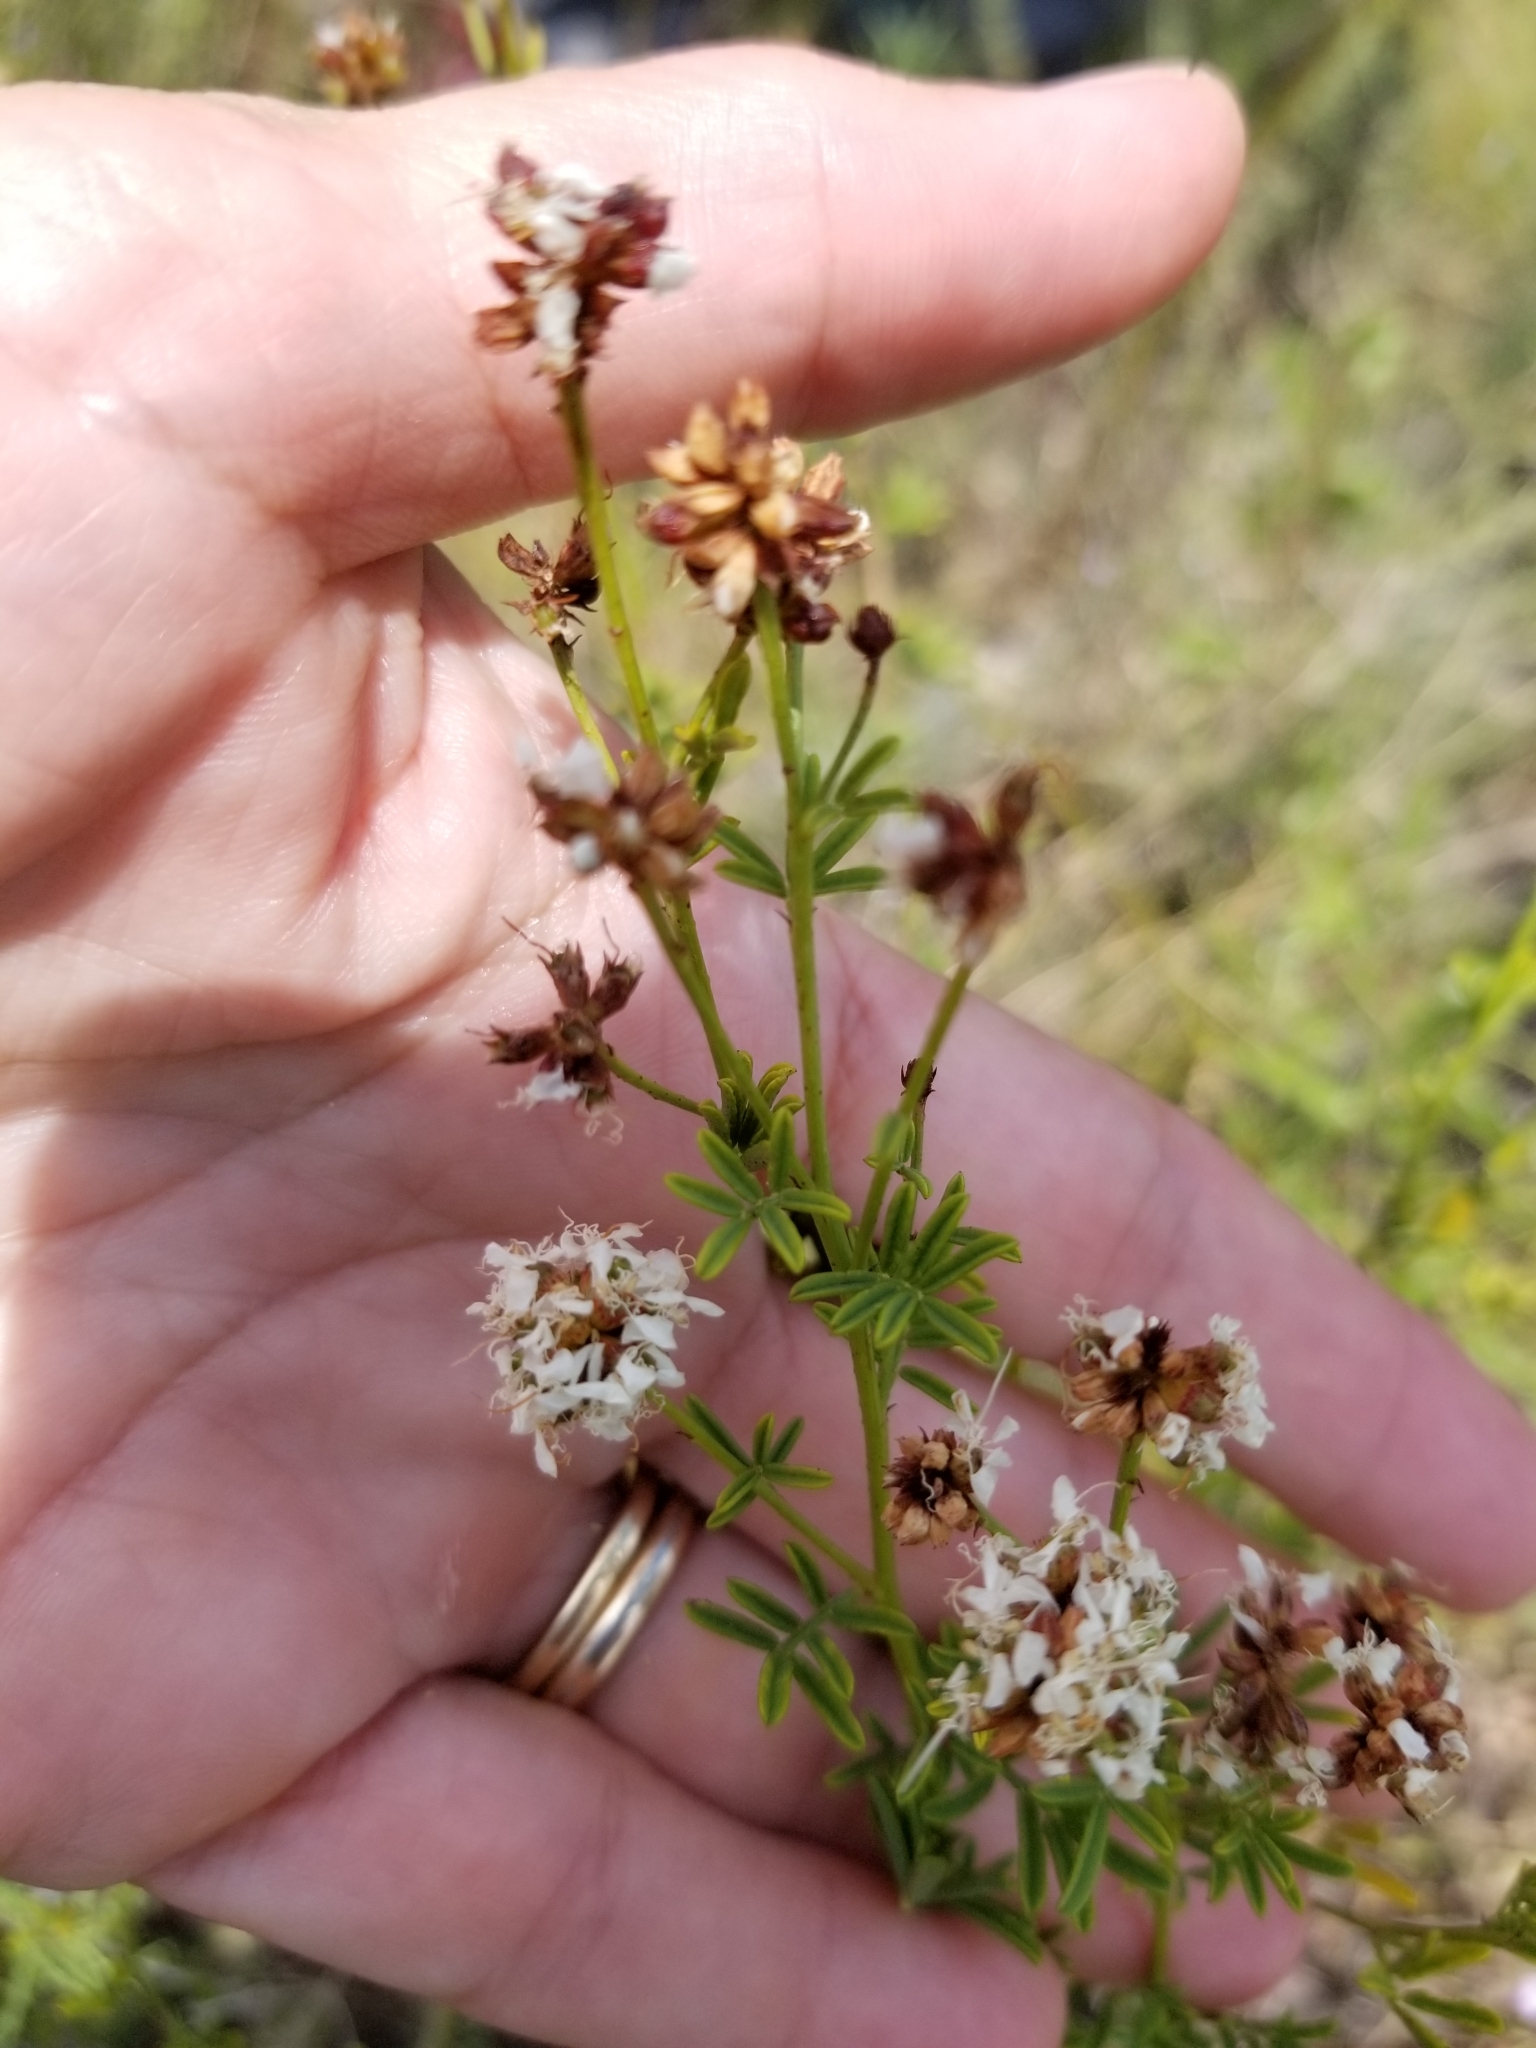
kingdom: Plantae
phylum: Tracheophyta
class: Magnoliopsida
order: Fabales
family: Fabaceae
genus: Dalea
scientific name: Dalea multiflora
